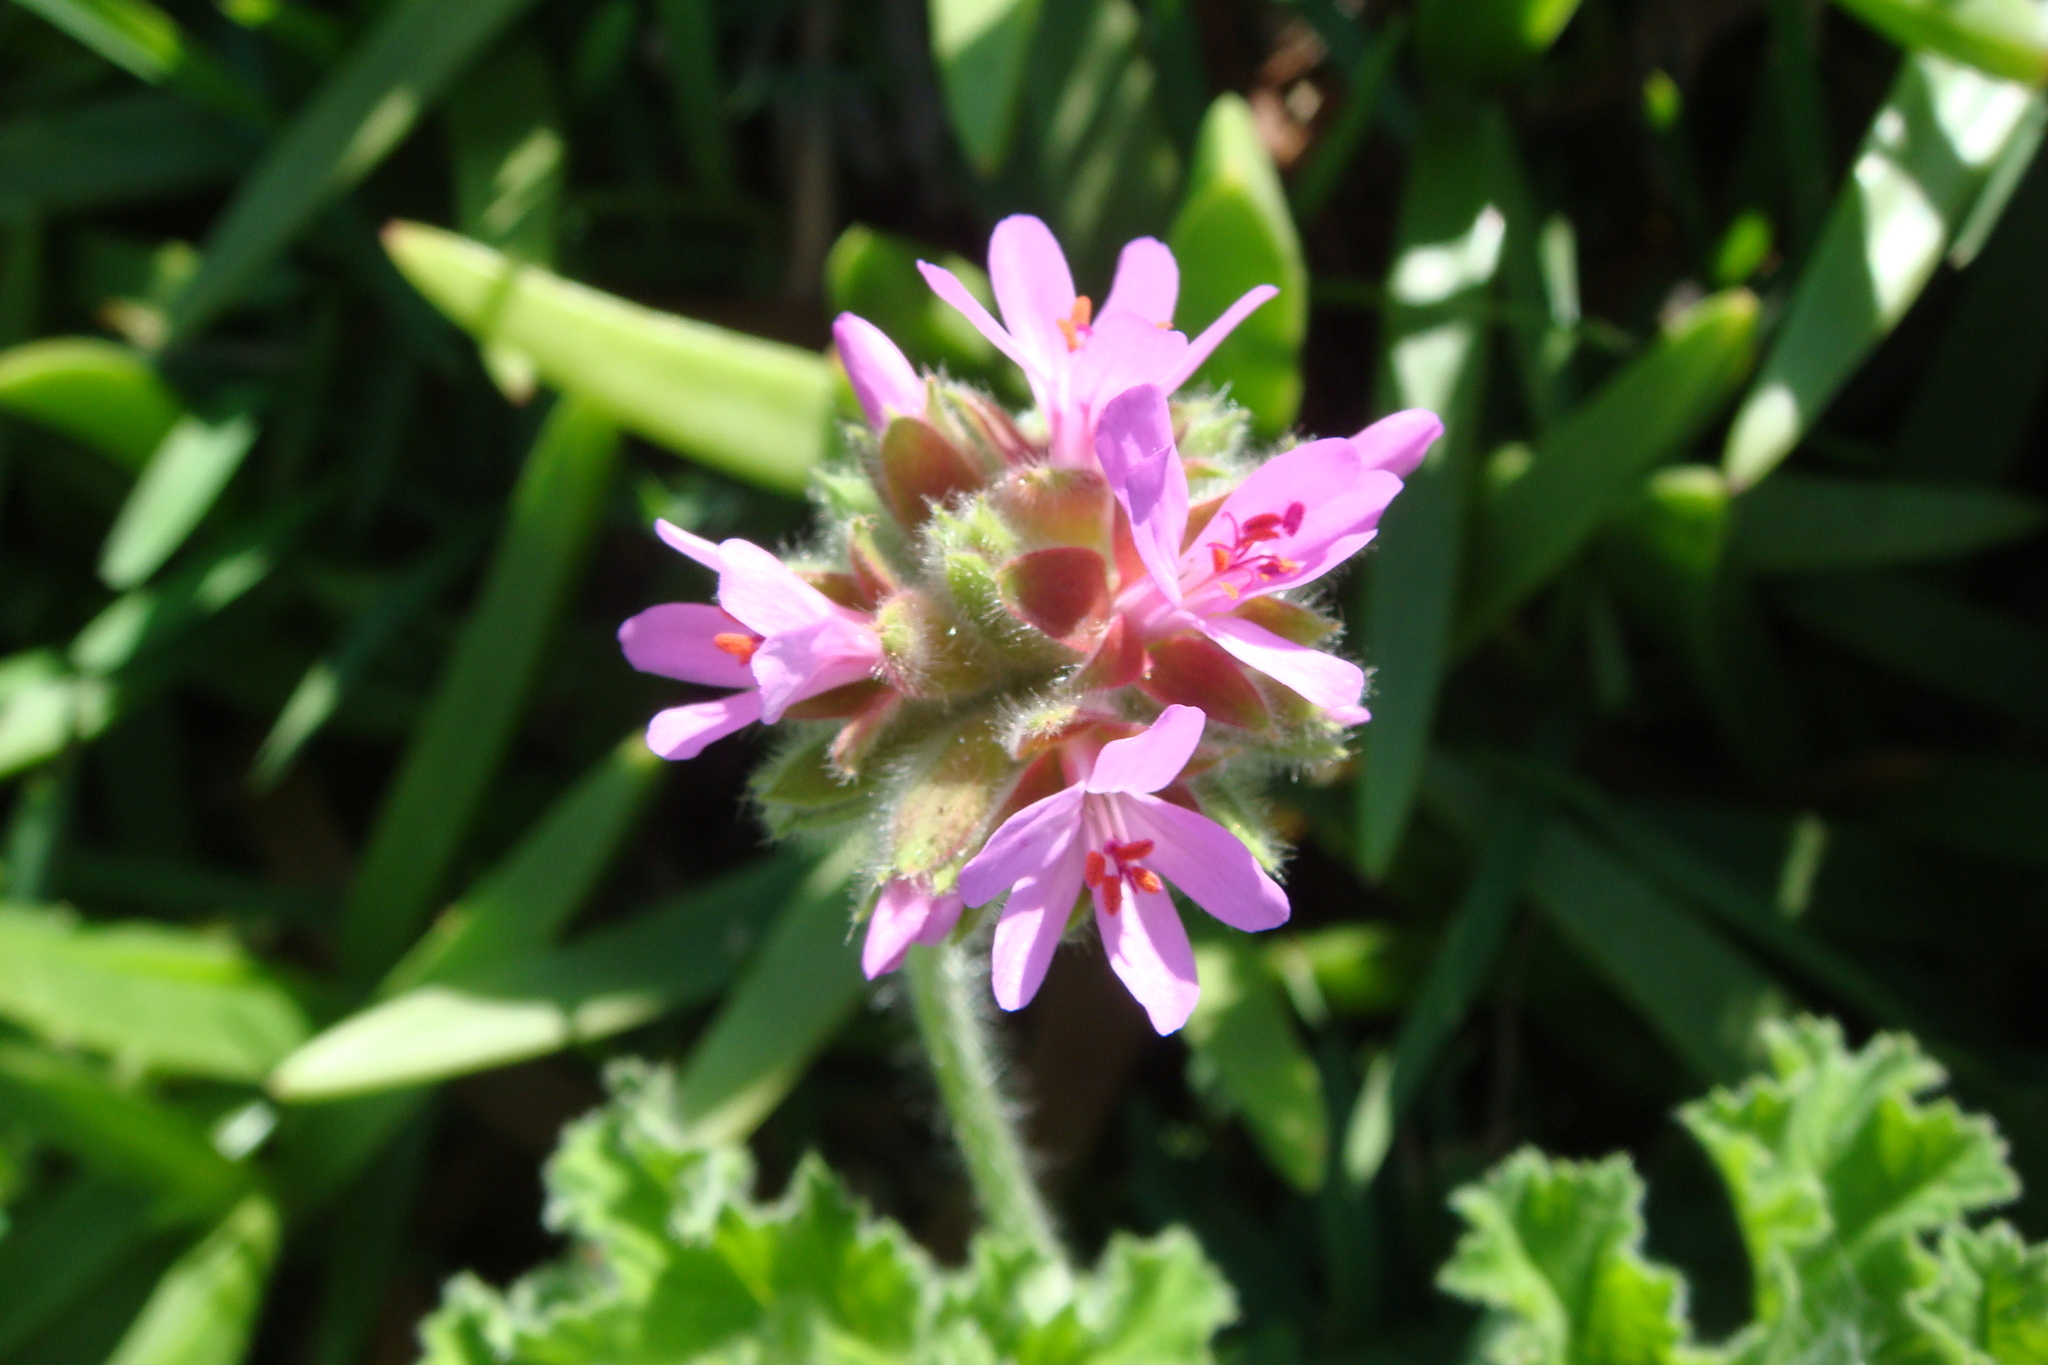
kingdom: Plantae
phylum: Tracheophyta
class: Magnoliopsida
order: Geraniales
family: Geraniaceae
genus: Pelargonium
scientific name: Pelargonium capitatum
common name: Rose scented geranium
